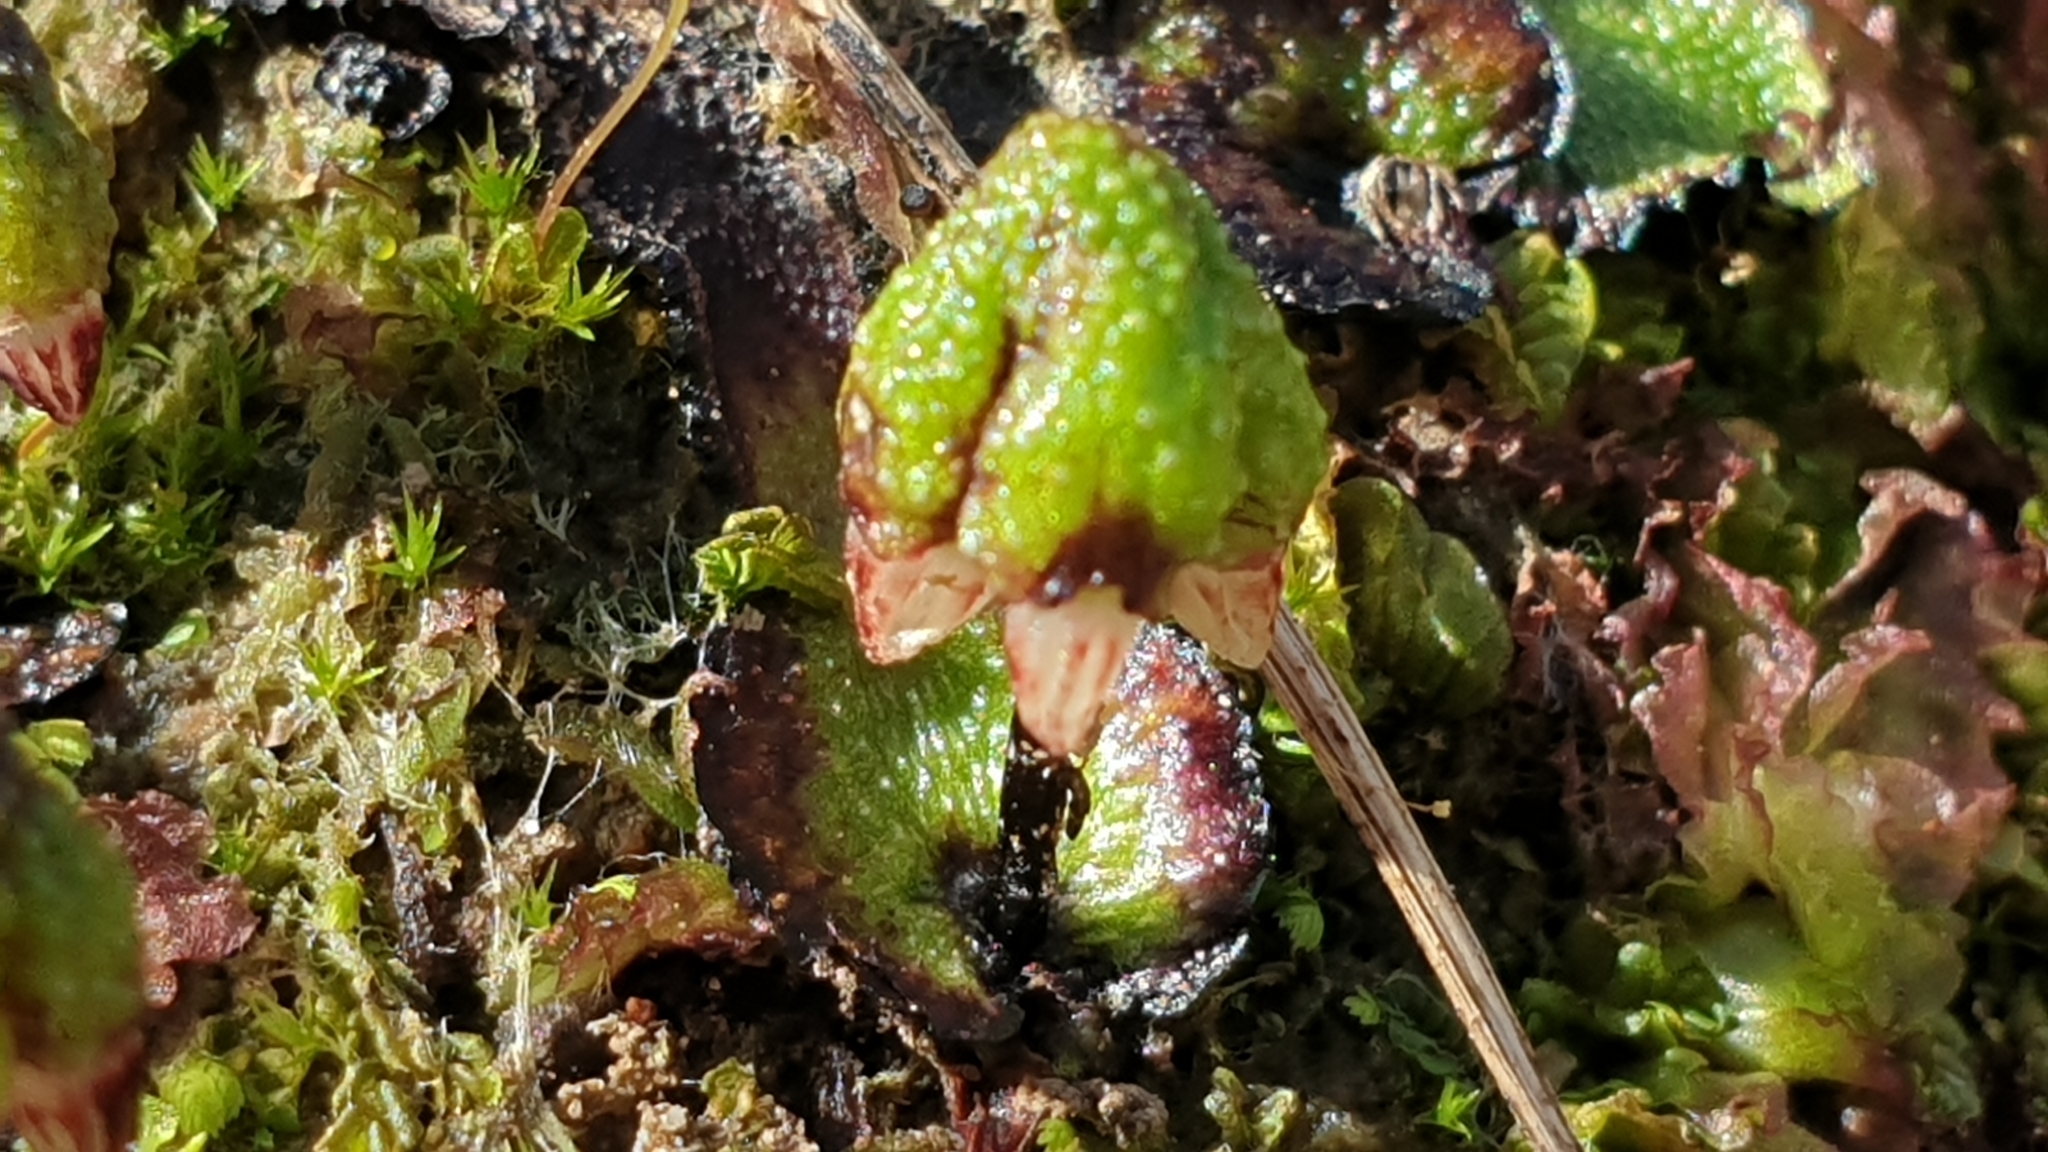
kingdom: Plantae
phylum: Marchantiophyta
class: Marchantiopsida
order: Marchantiales
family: Aytoniaceae
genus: Asterella
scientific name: Asterella drummondii
